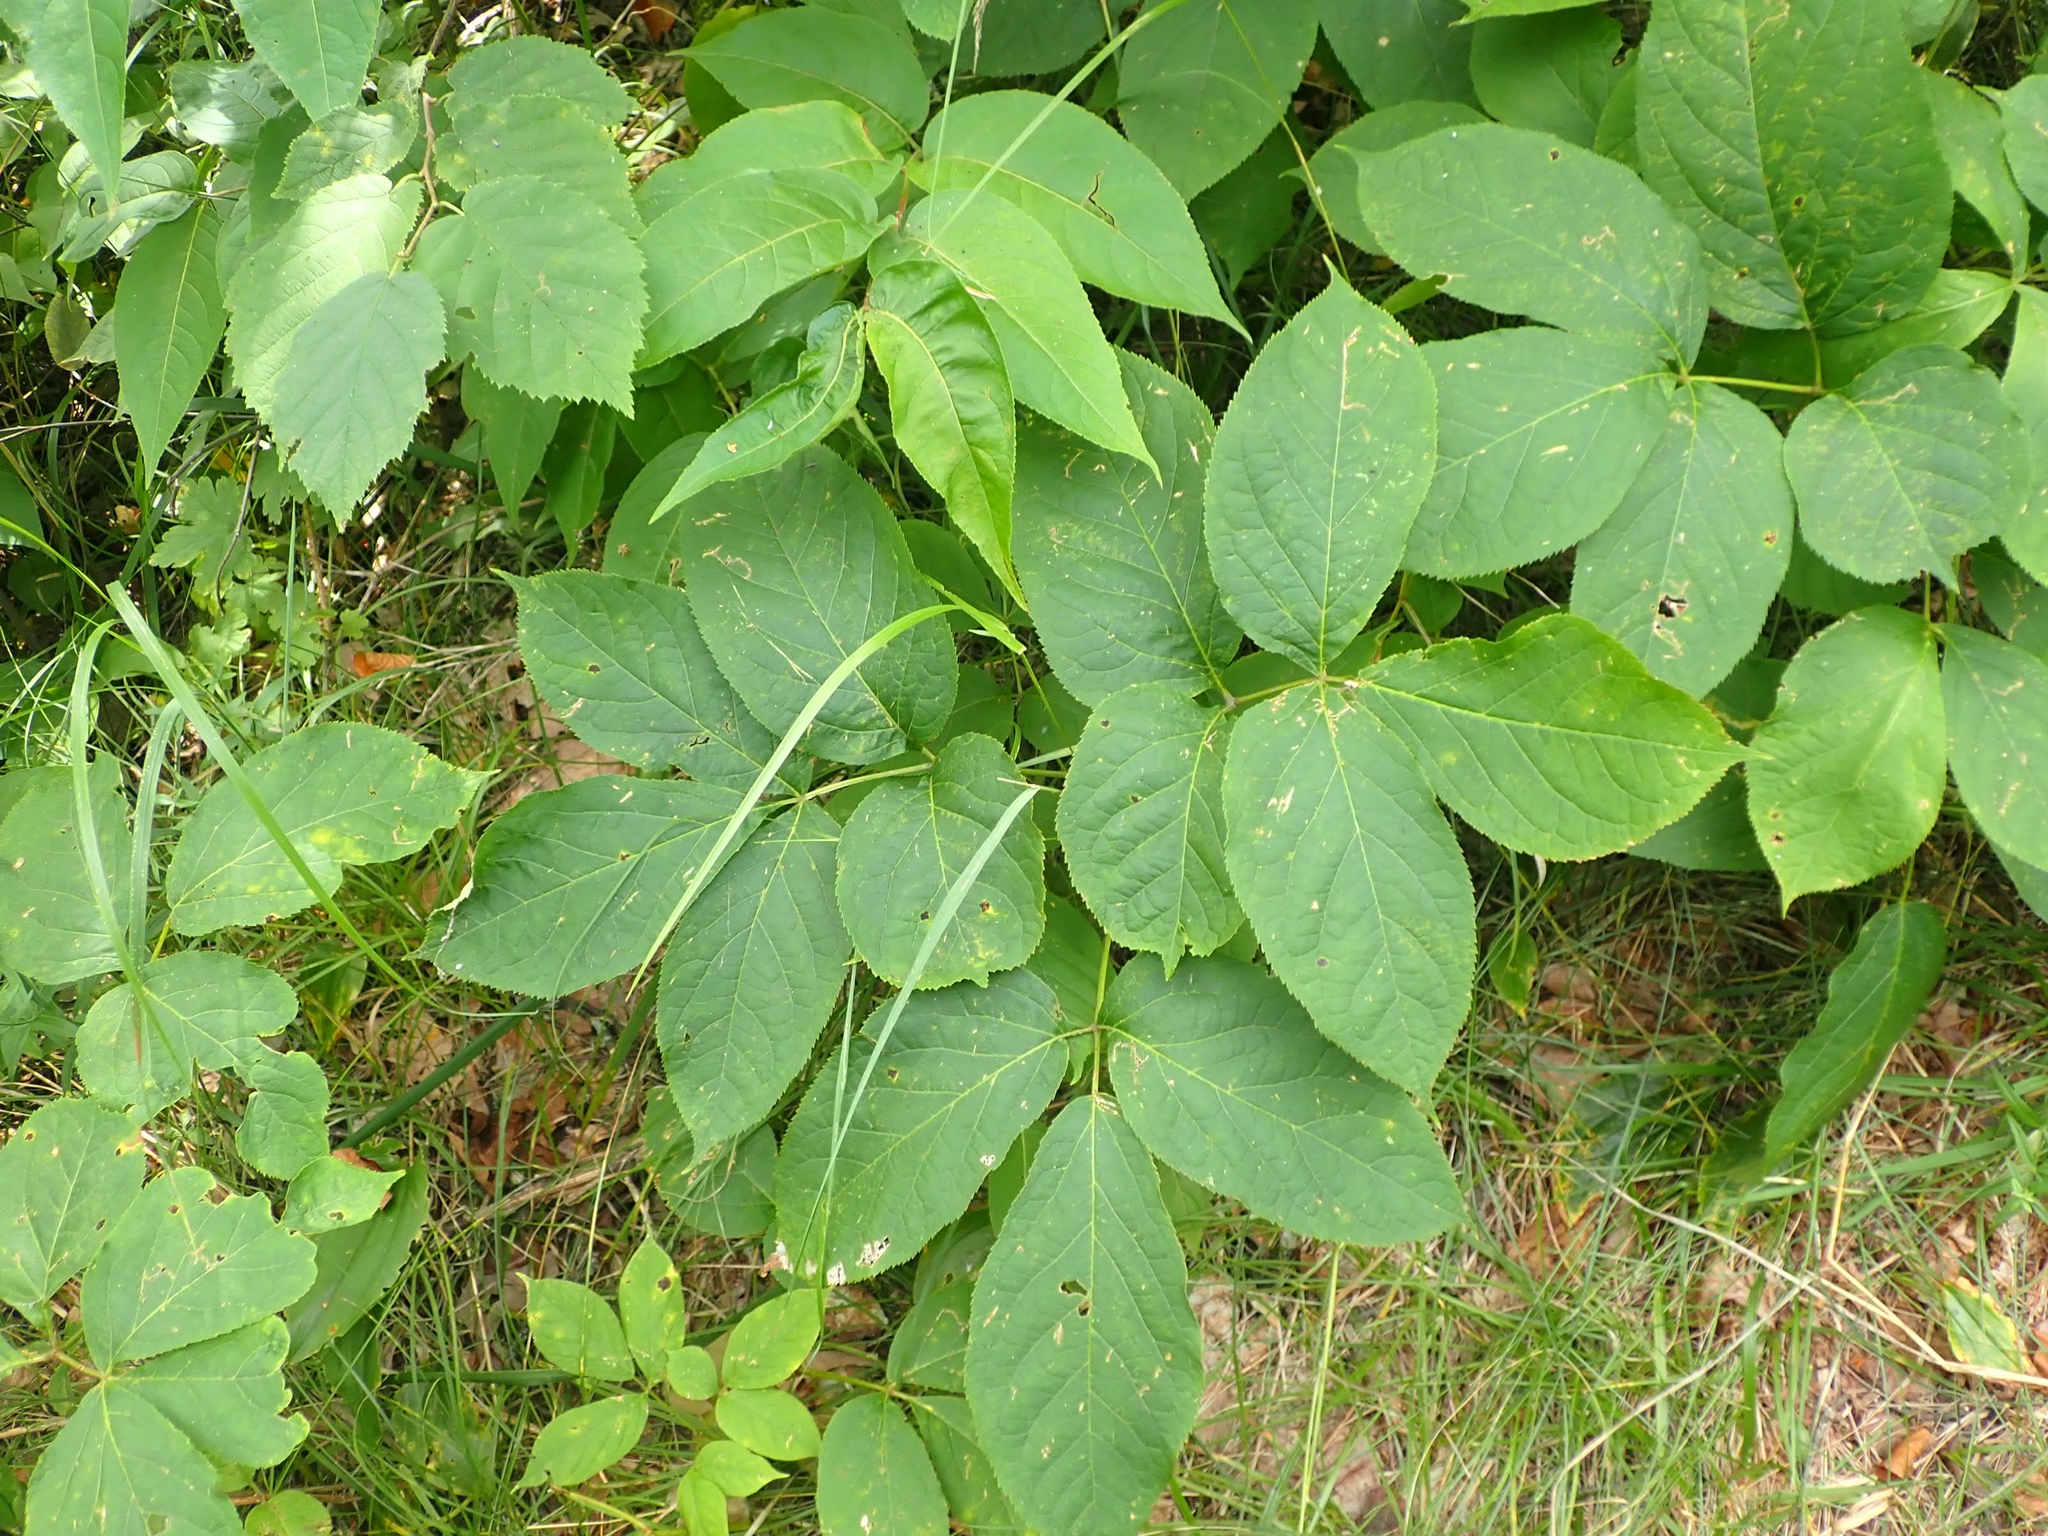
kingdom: Plantae
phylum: Tracheophyta
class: Magnoliopsida
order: Apiales
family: Araliaceae
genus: Aralia
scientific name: Aralia nudicaulis
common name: Wild sarsaparilla
